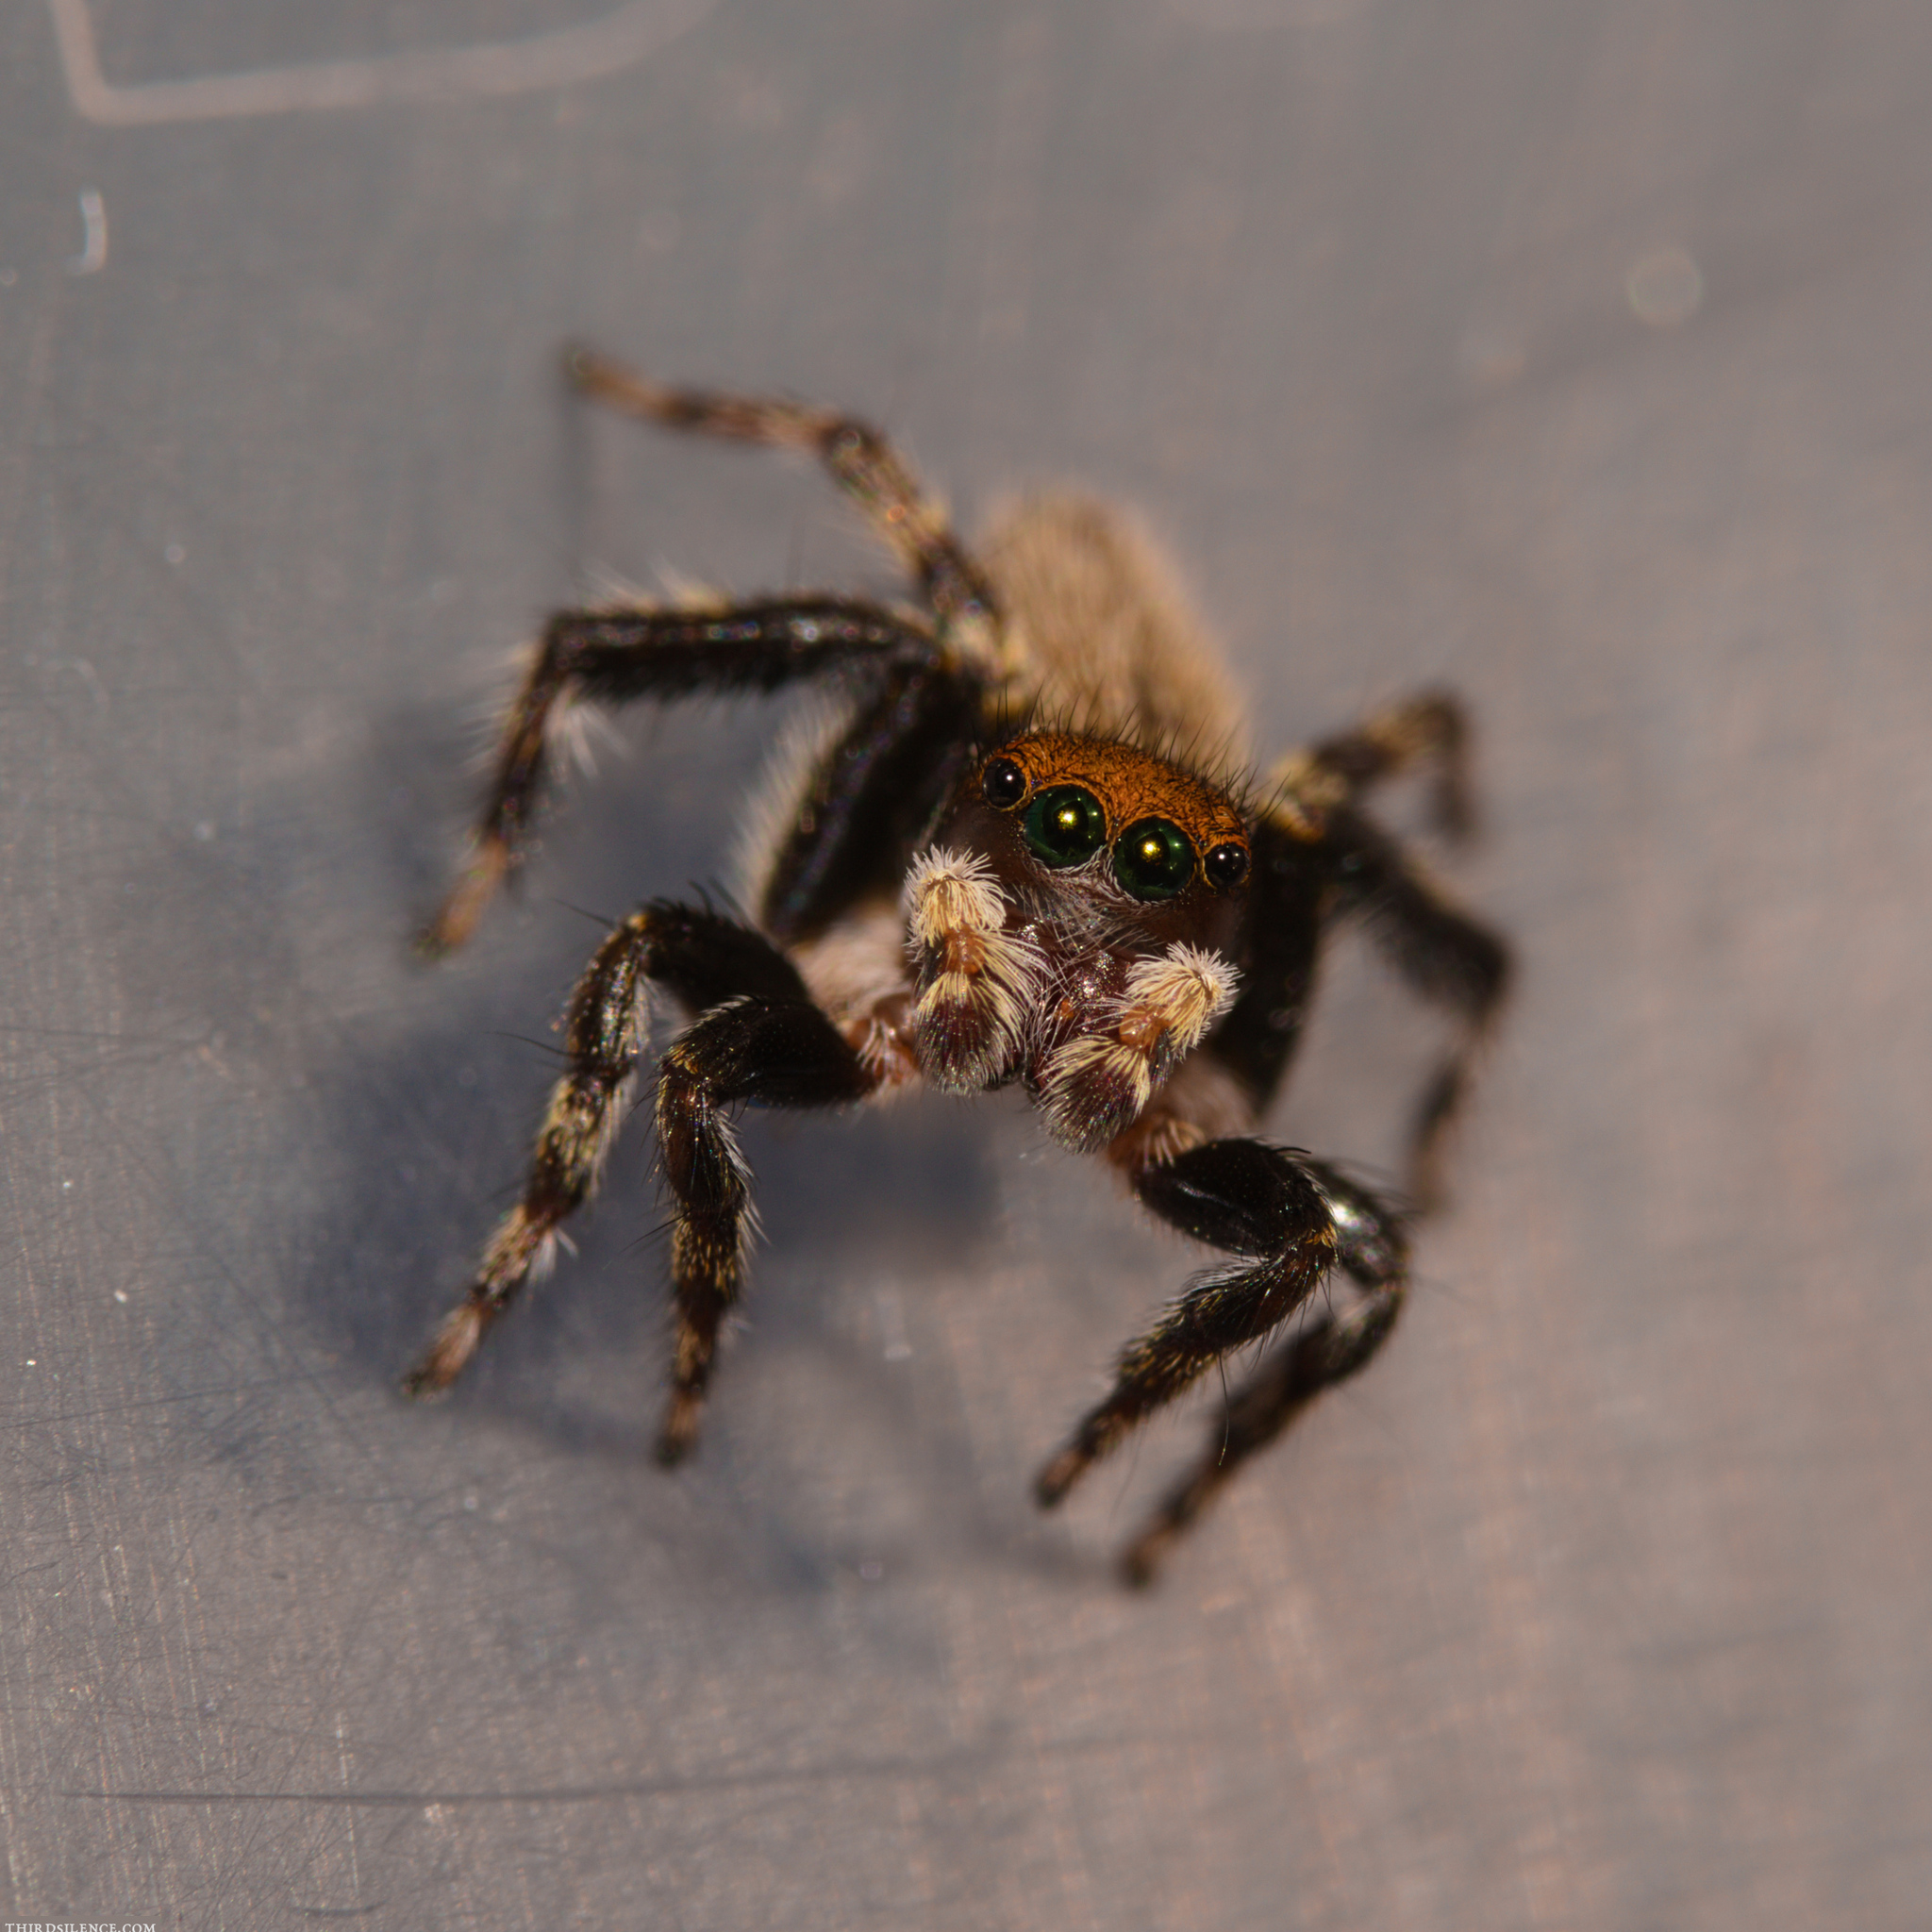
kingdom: Animalia
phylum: Arthropoda
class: Arachnida
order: Araneae
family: Salticidae
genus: Maratus
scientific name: Maratus griseus
